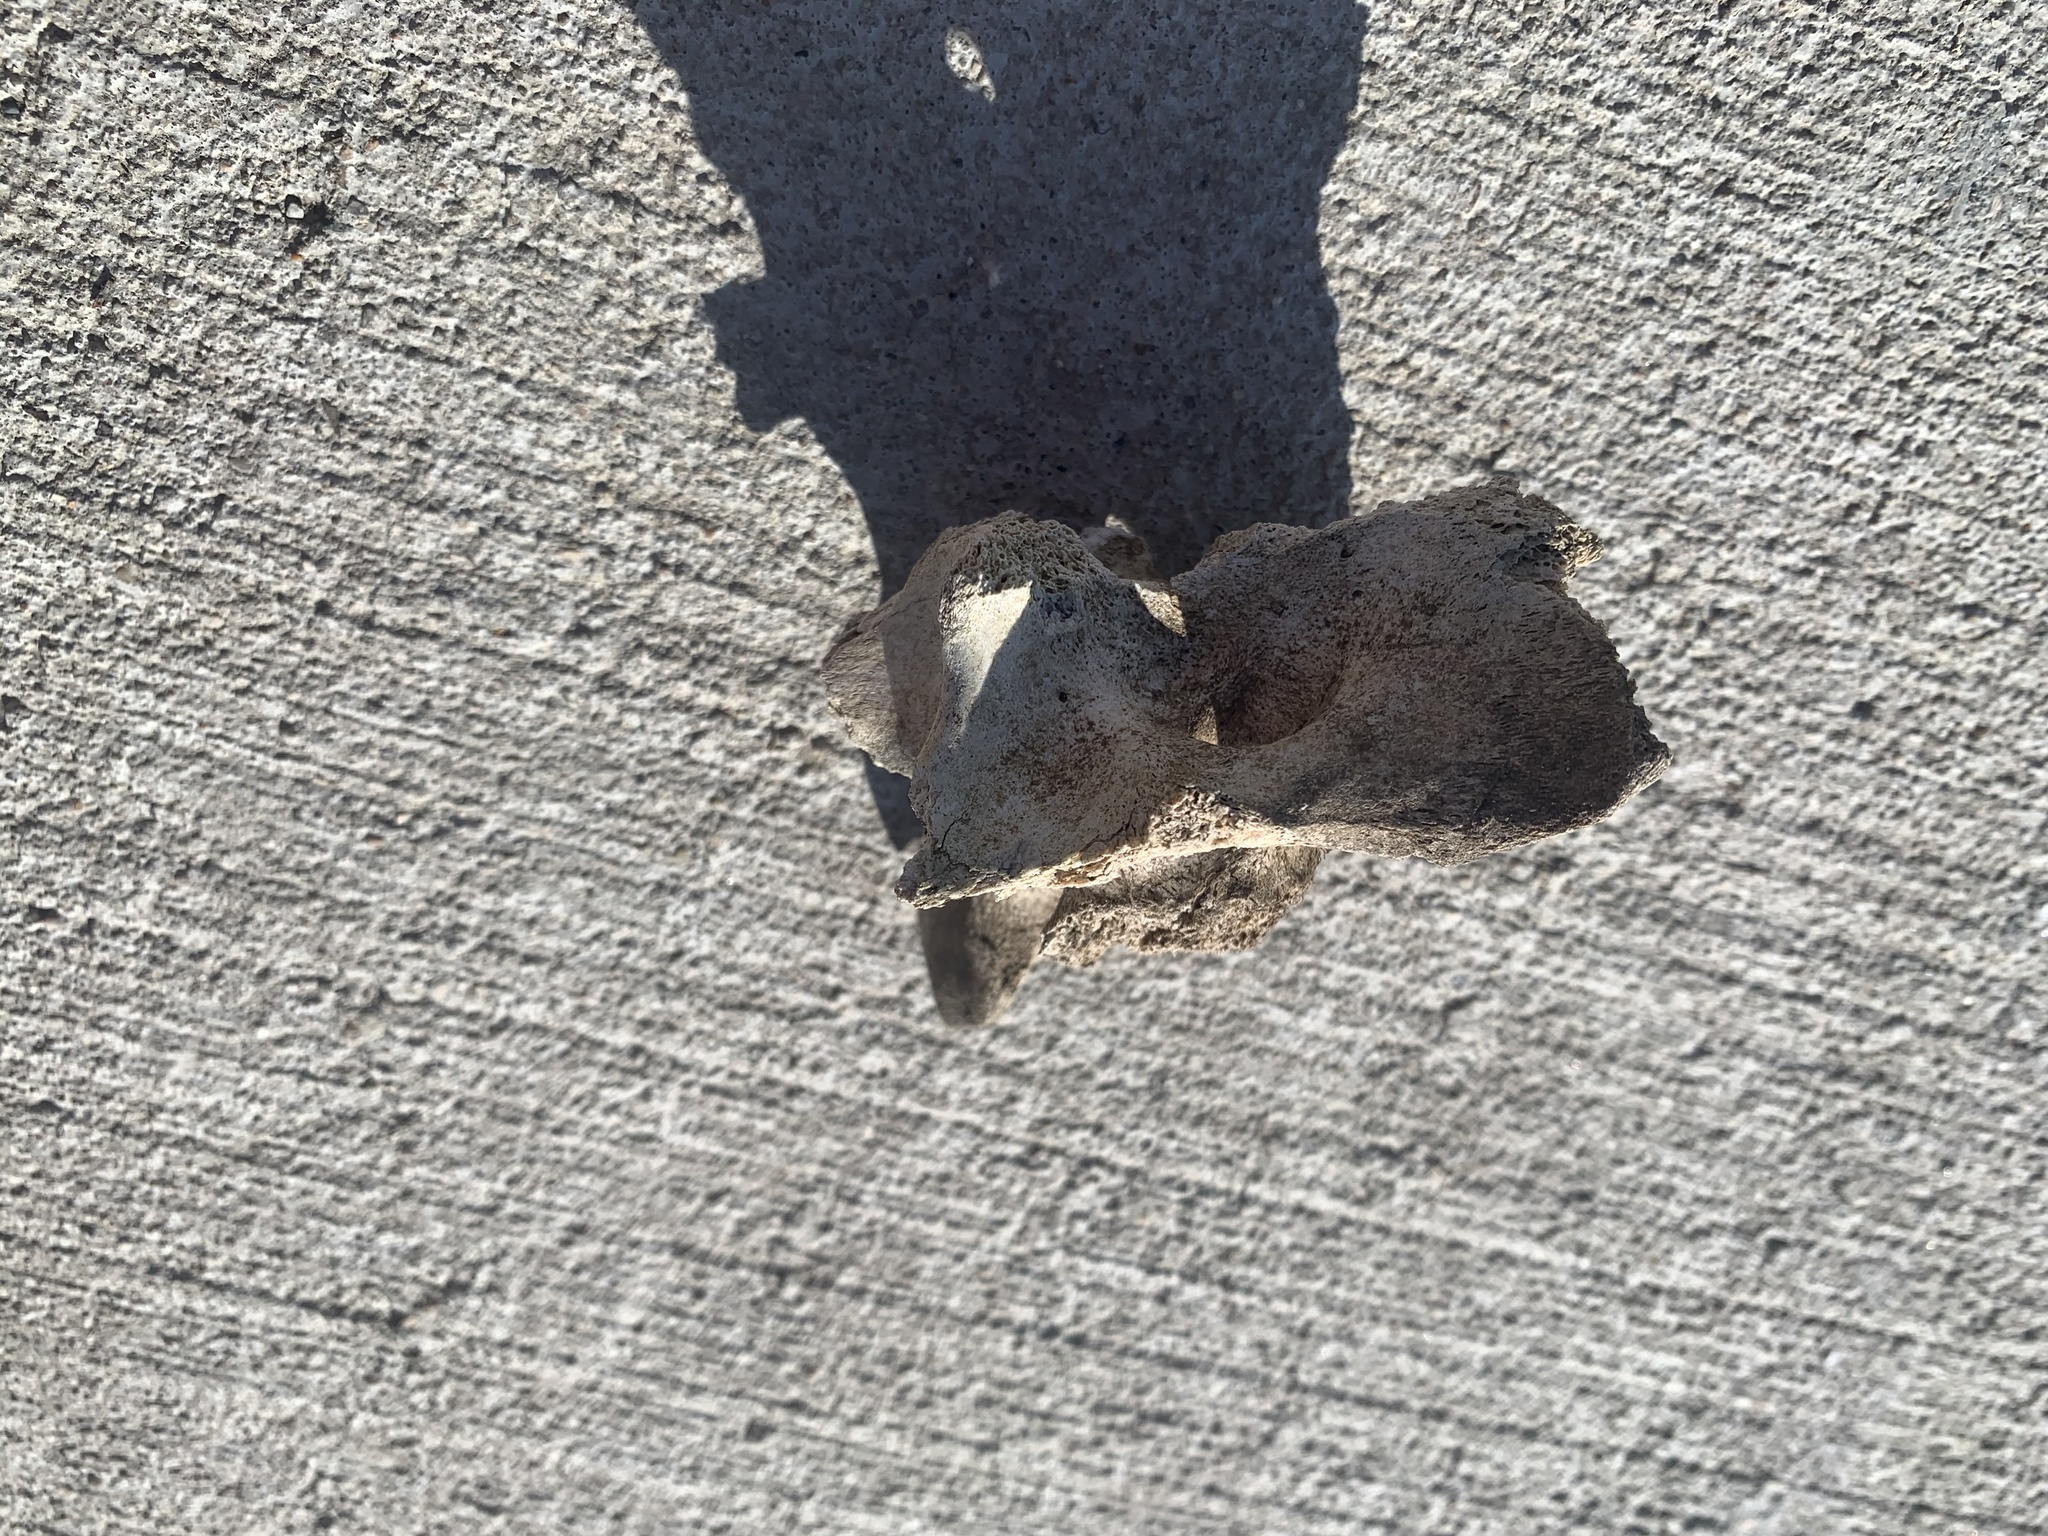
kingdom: Animalia
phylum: Chordata
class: Mammalia
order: Artiodactyla
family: Cervidae
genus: Odocoileus
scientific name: Odocoileus virginianus
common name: White-tailed deer
